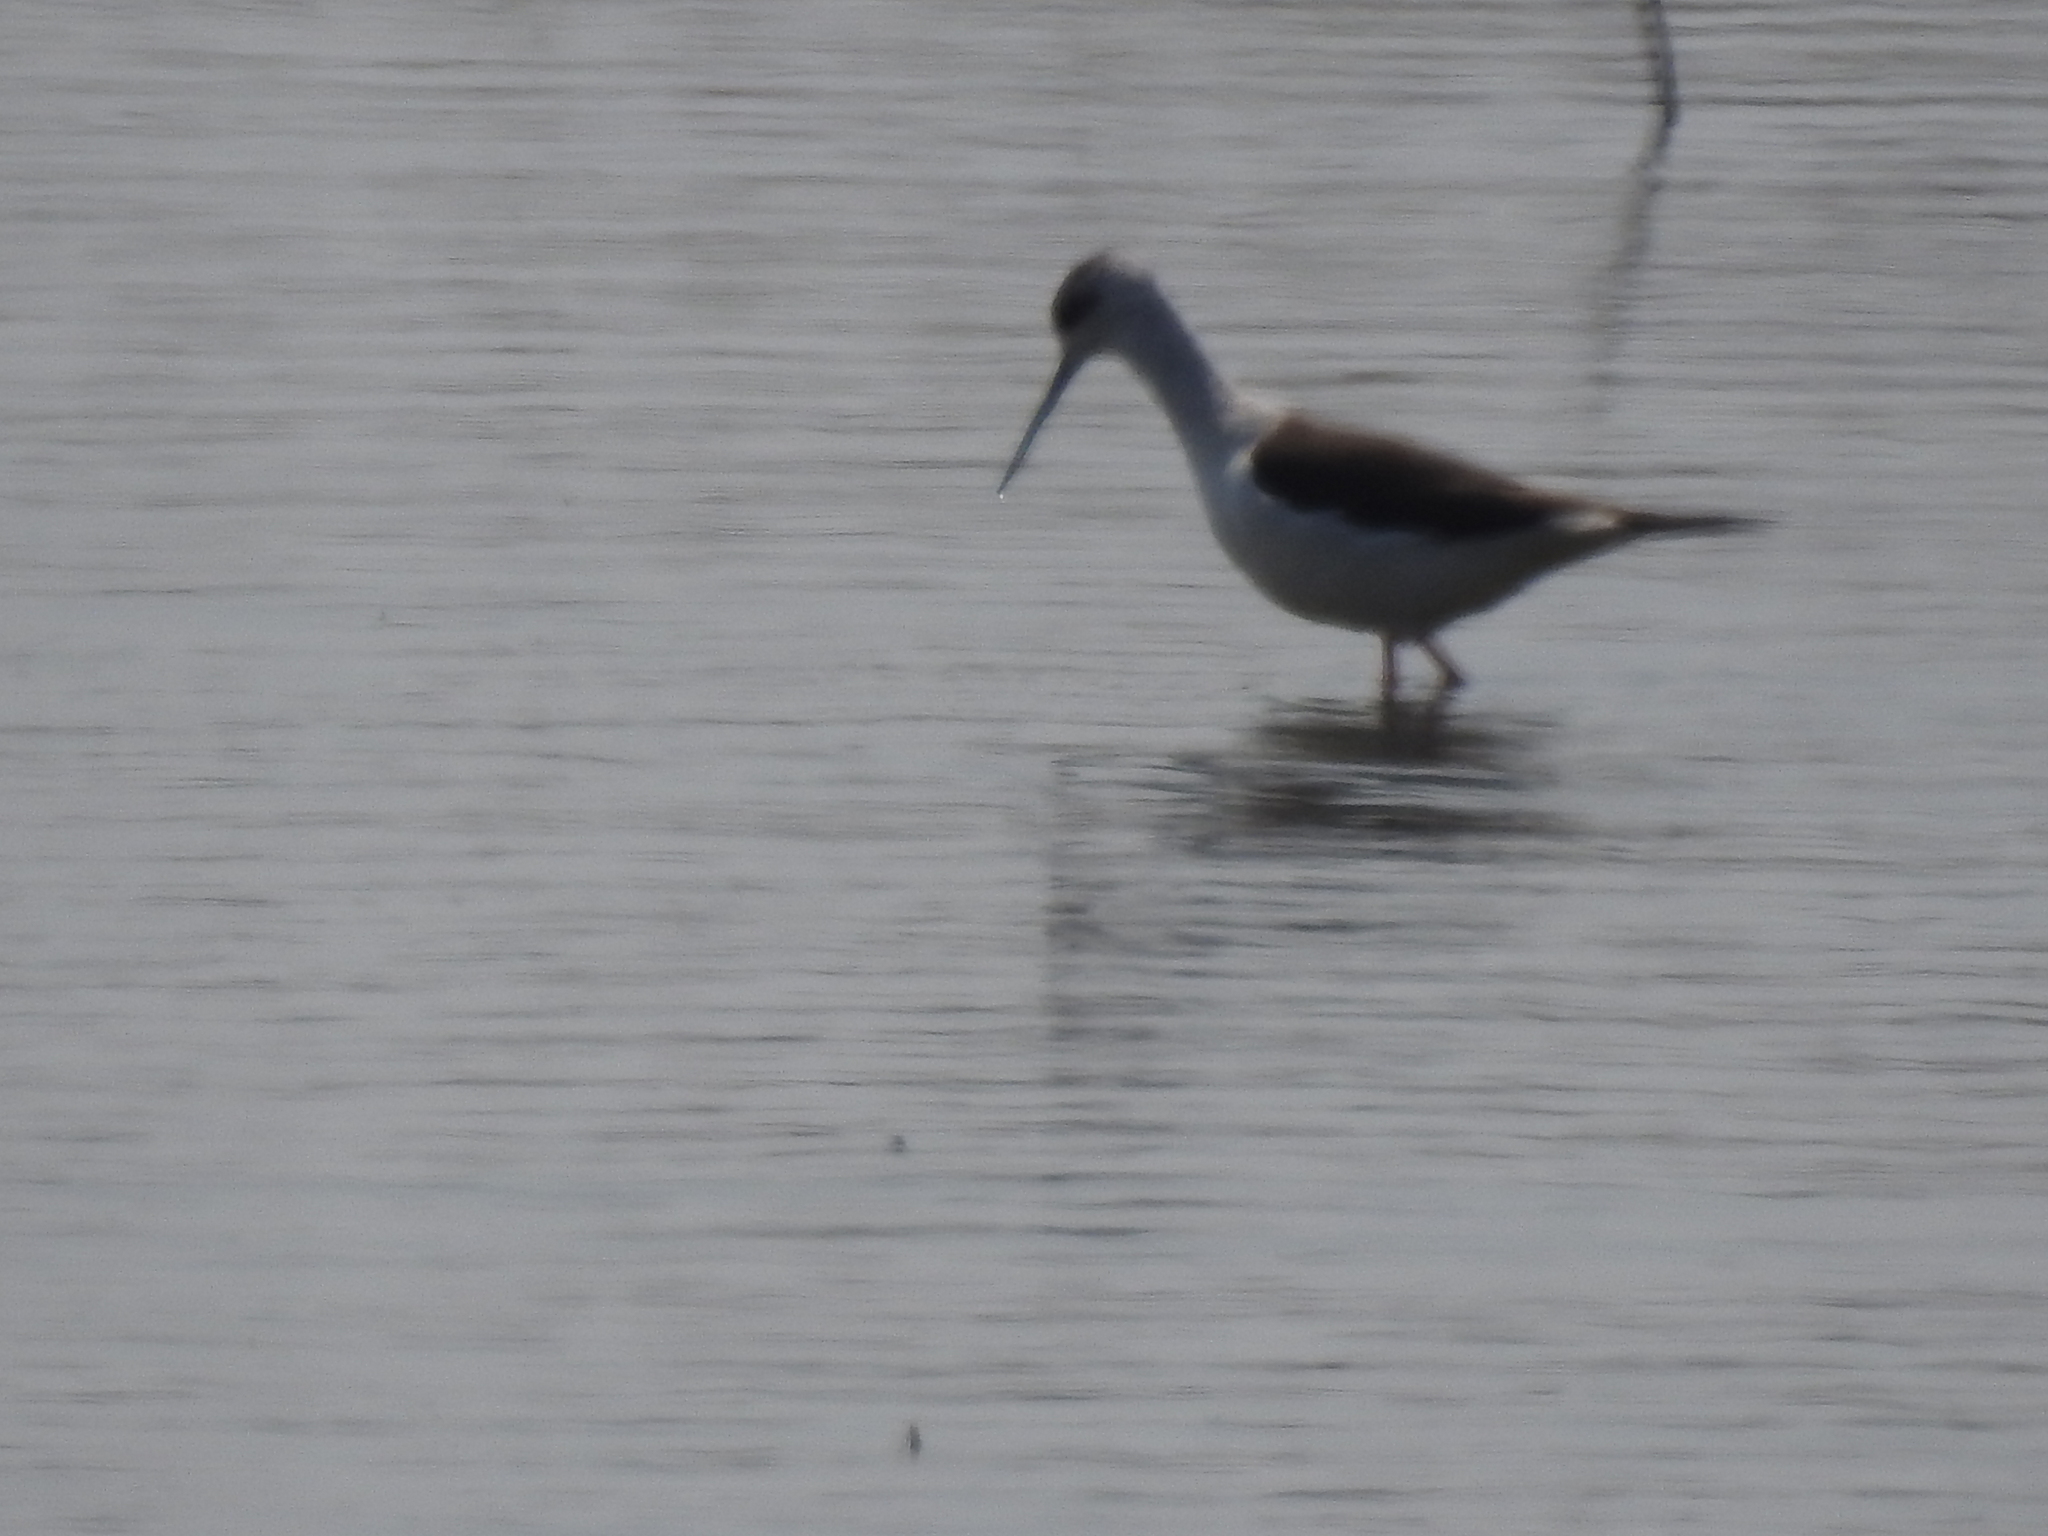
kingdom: Animalia
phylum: Chordata
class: Aves
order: Charadriiformes
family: Recurvirostridae
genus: Himantopus
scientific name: Himantopus himantopus
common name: Black-winged stilt
